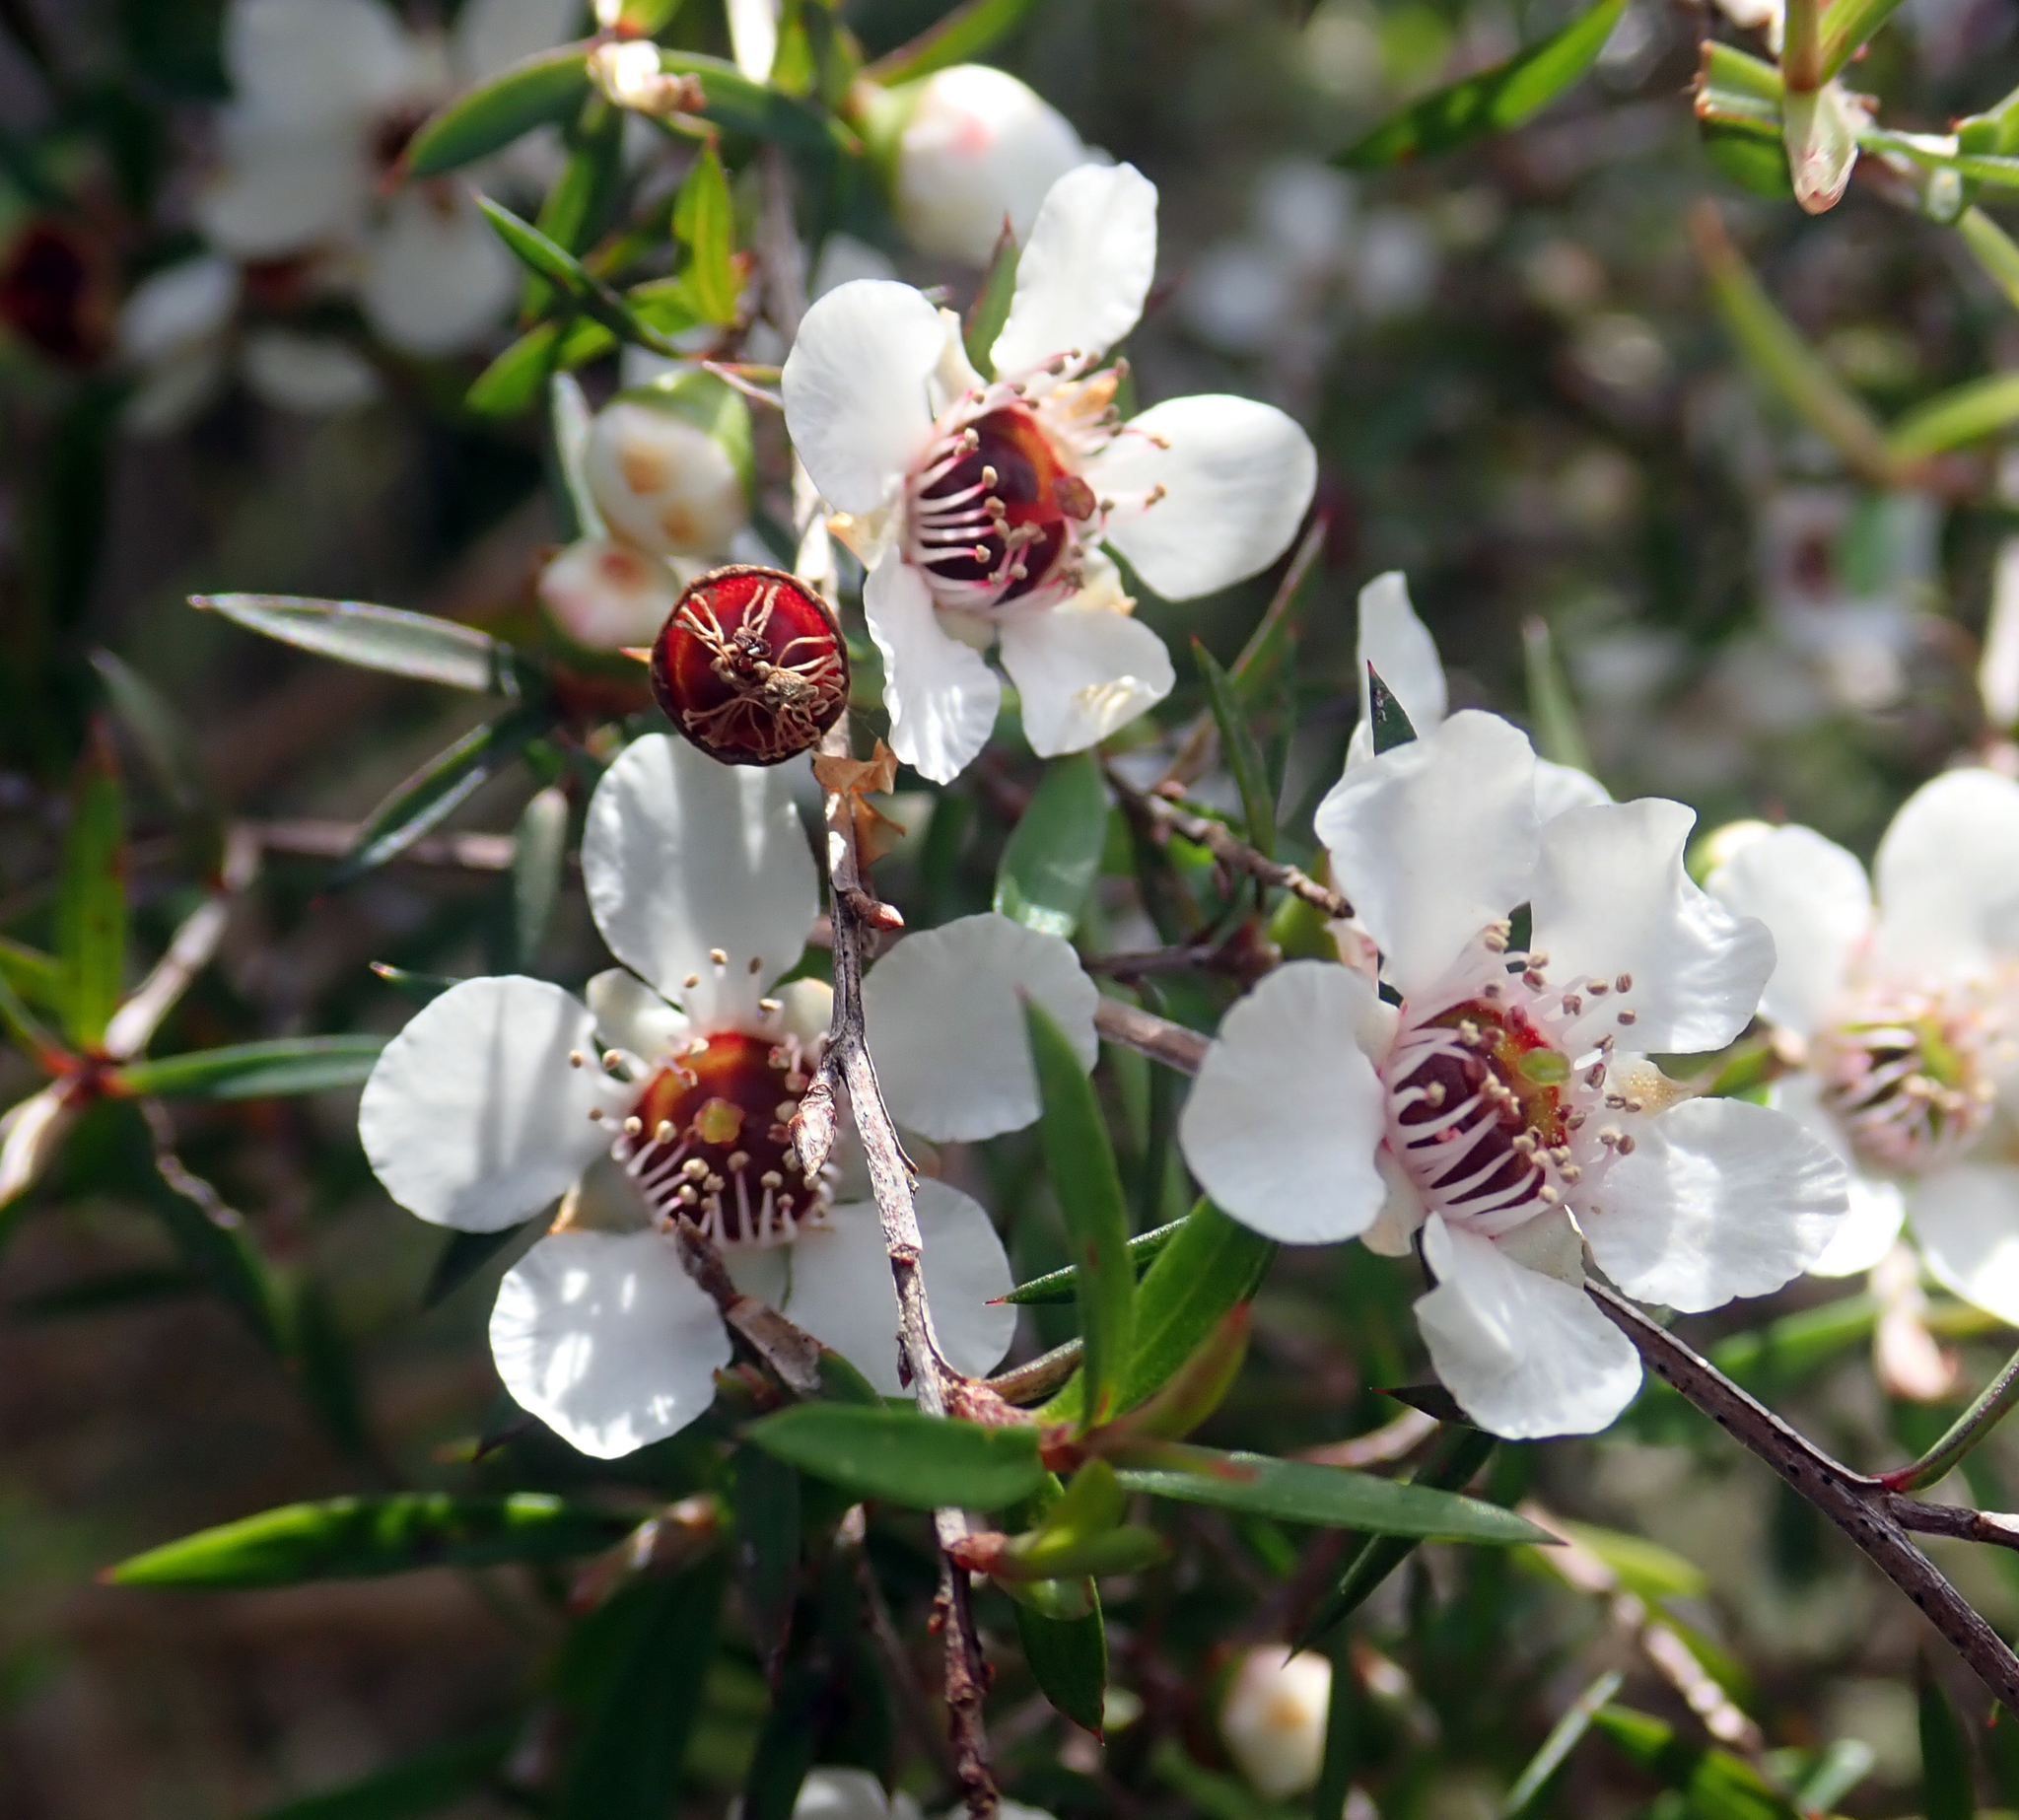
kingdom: Plantae
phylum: Tracheophyta
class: Magnoliopsida
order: Myrtales
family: Myrtaceae
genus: Leptospermum
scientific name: Leptospermum scoparium
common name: Broom tea-tree
